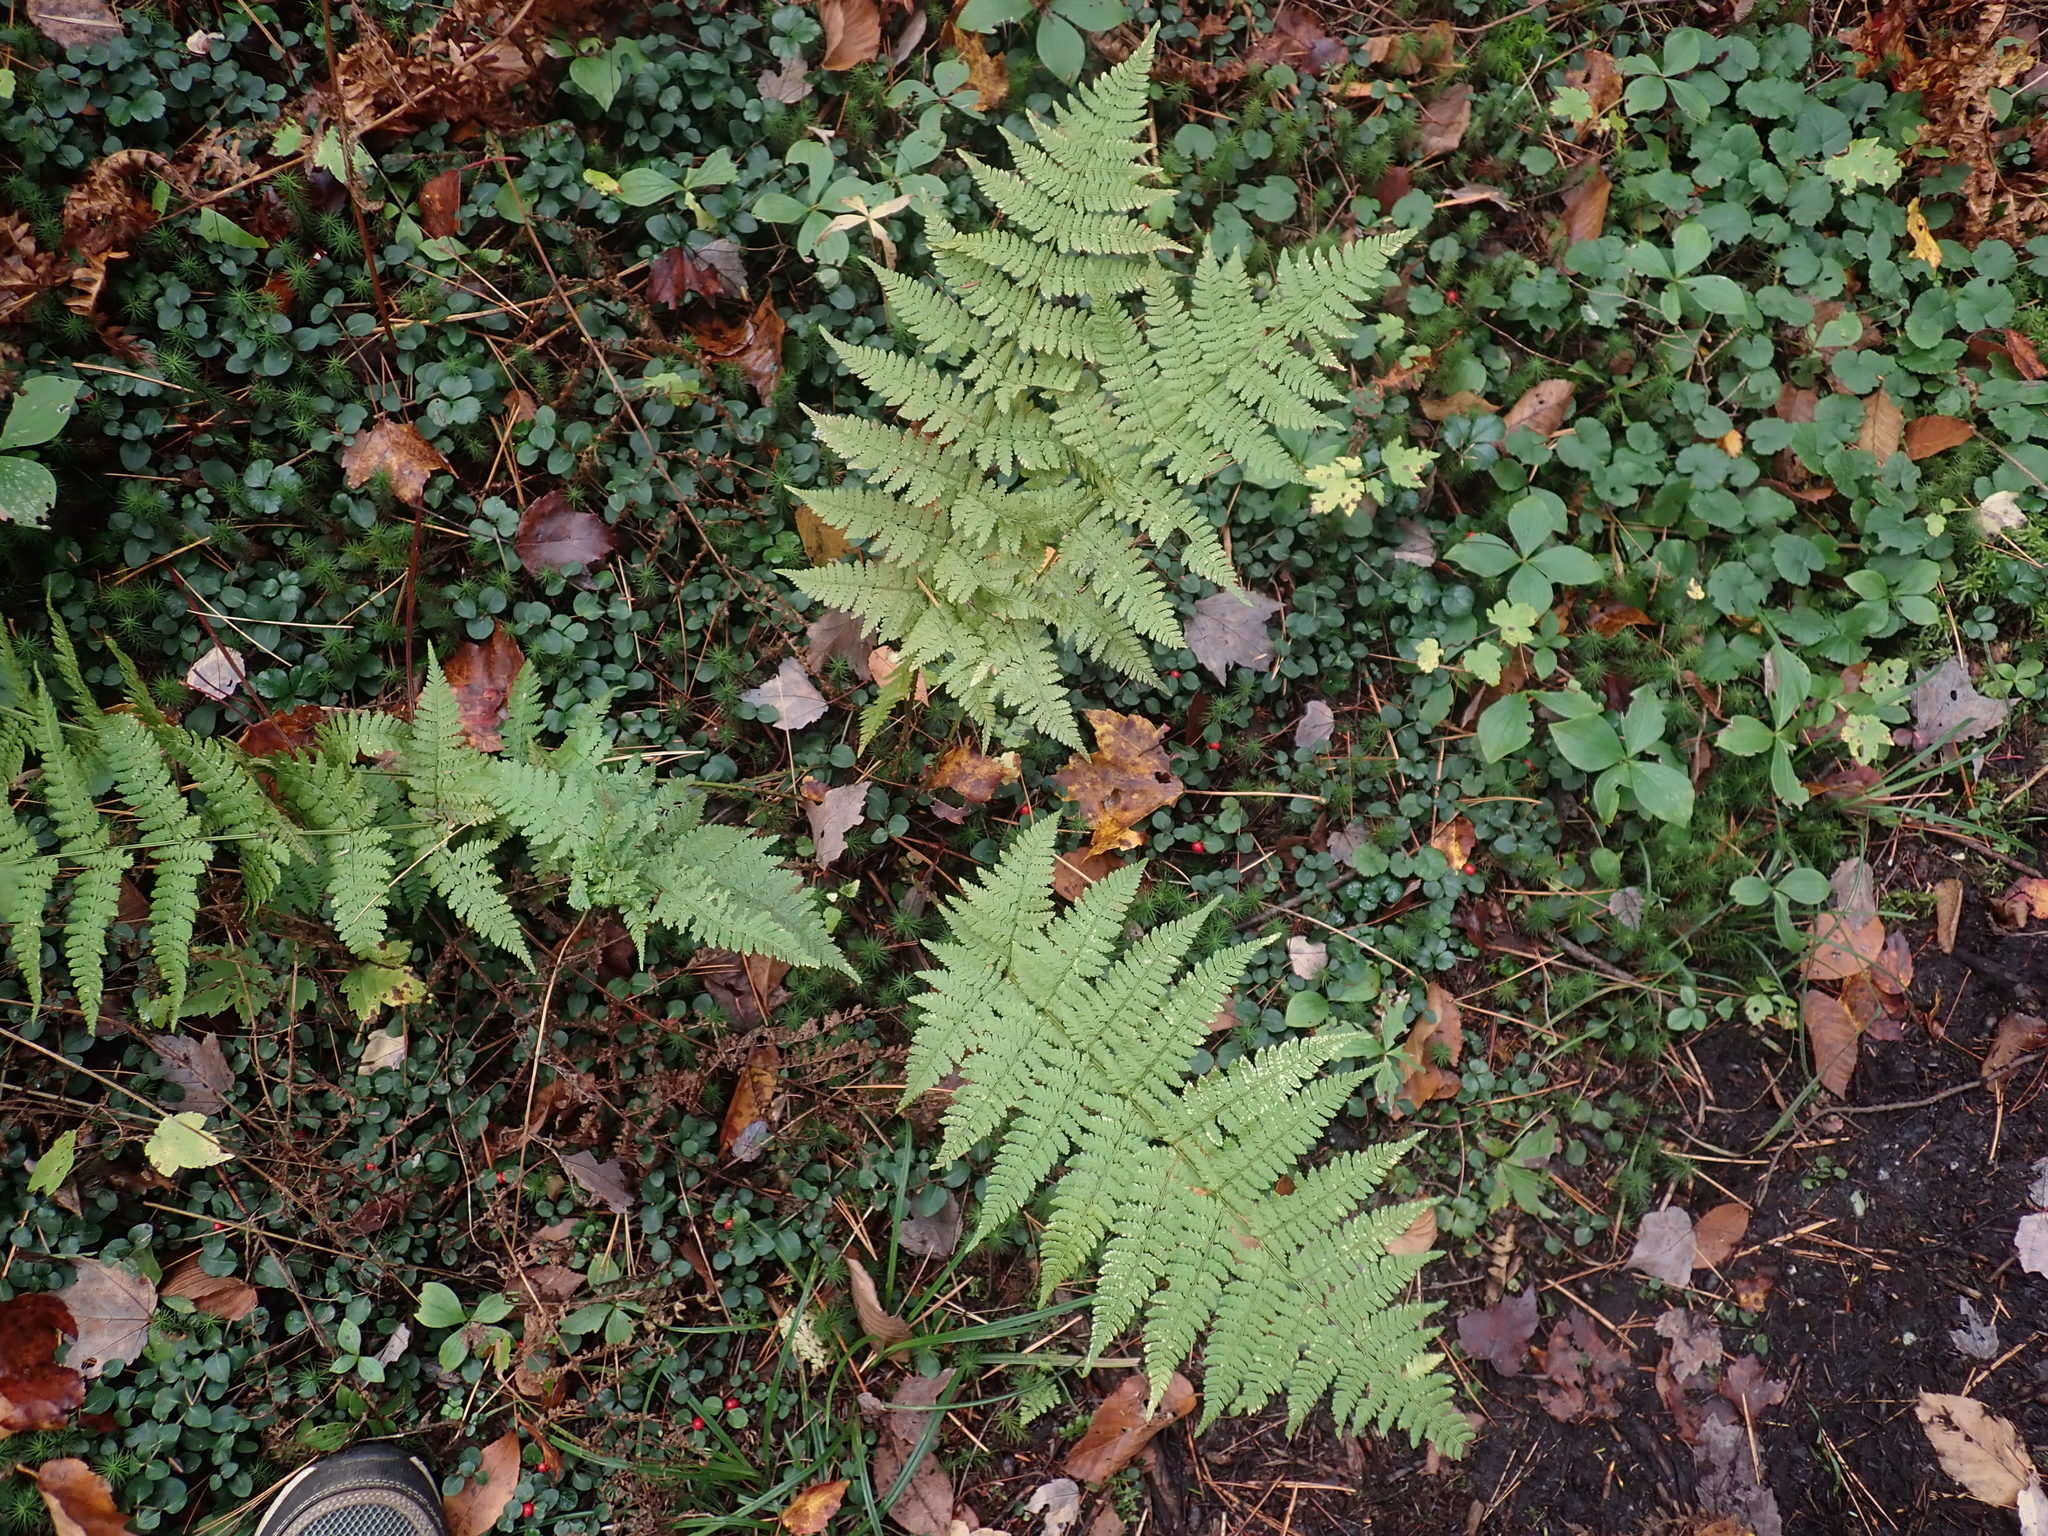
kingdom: Plantae
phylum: Tracheophyta
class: Polypodiopsida
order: Polypodiales
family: Dryopteridaceae
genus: Dryopteris
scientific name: Dryopteris intermedia
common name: Evergreen wood fern
